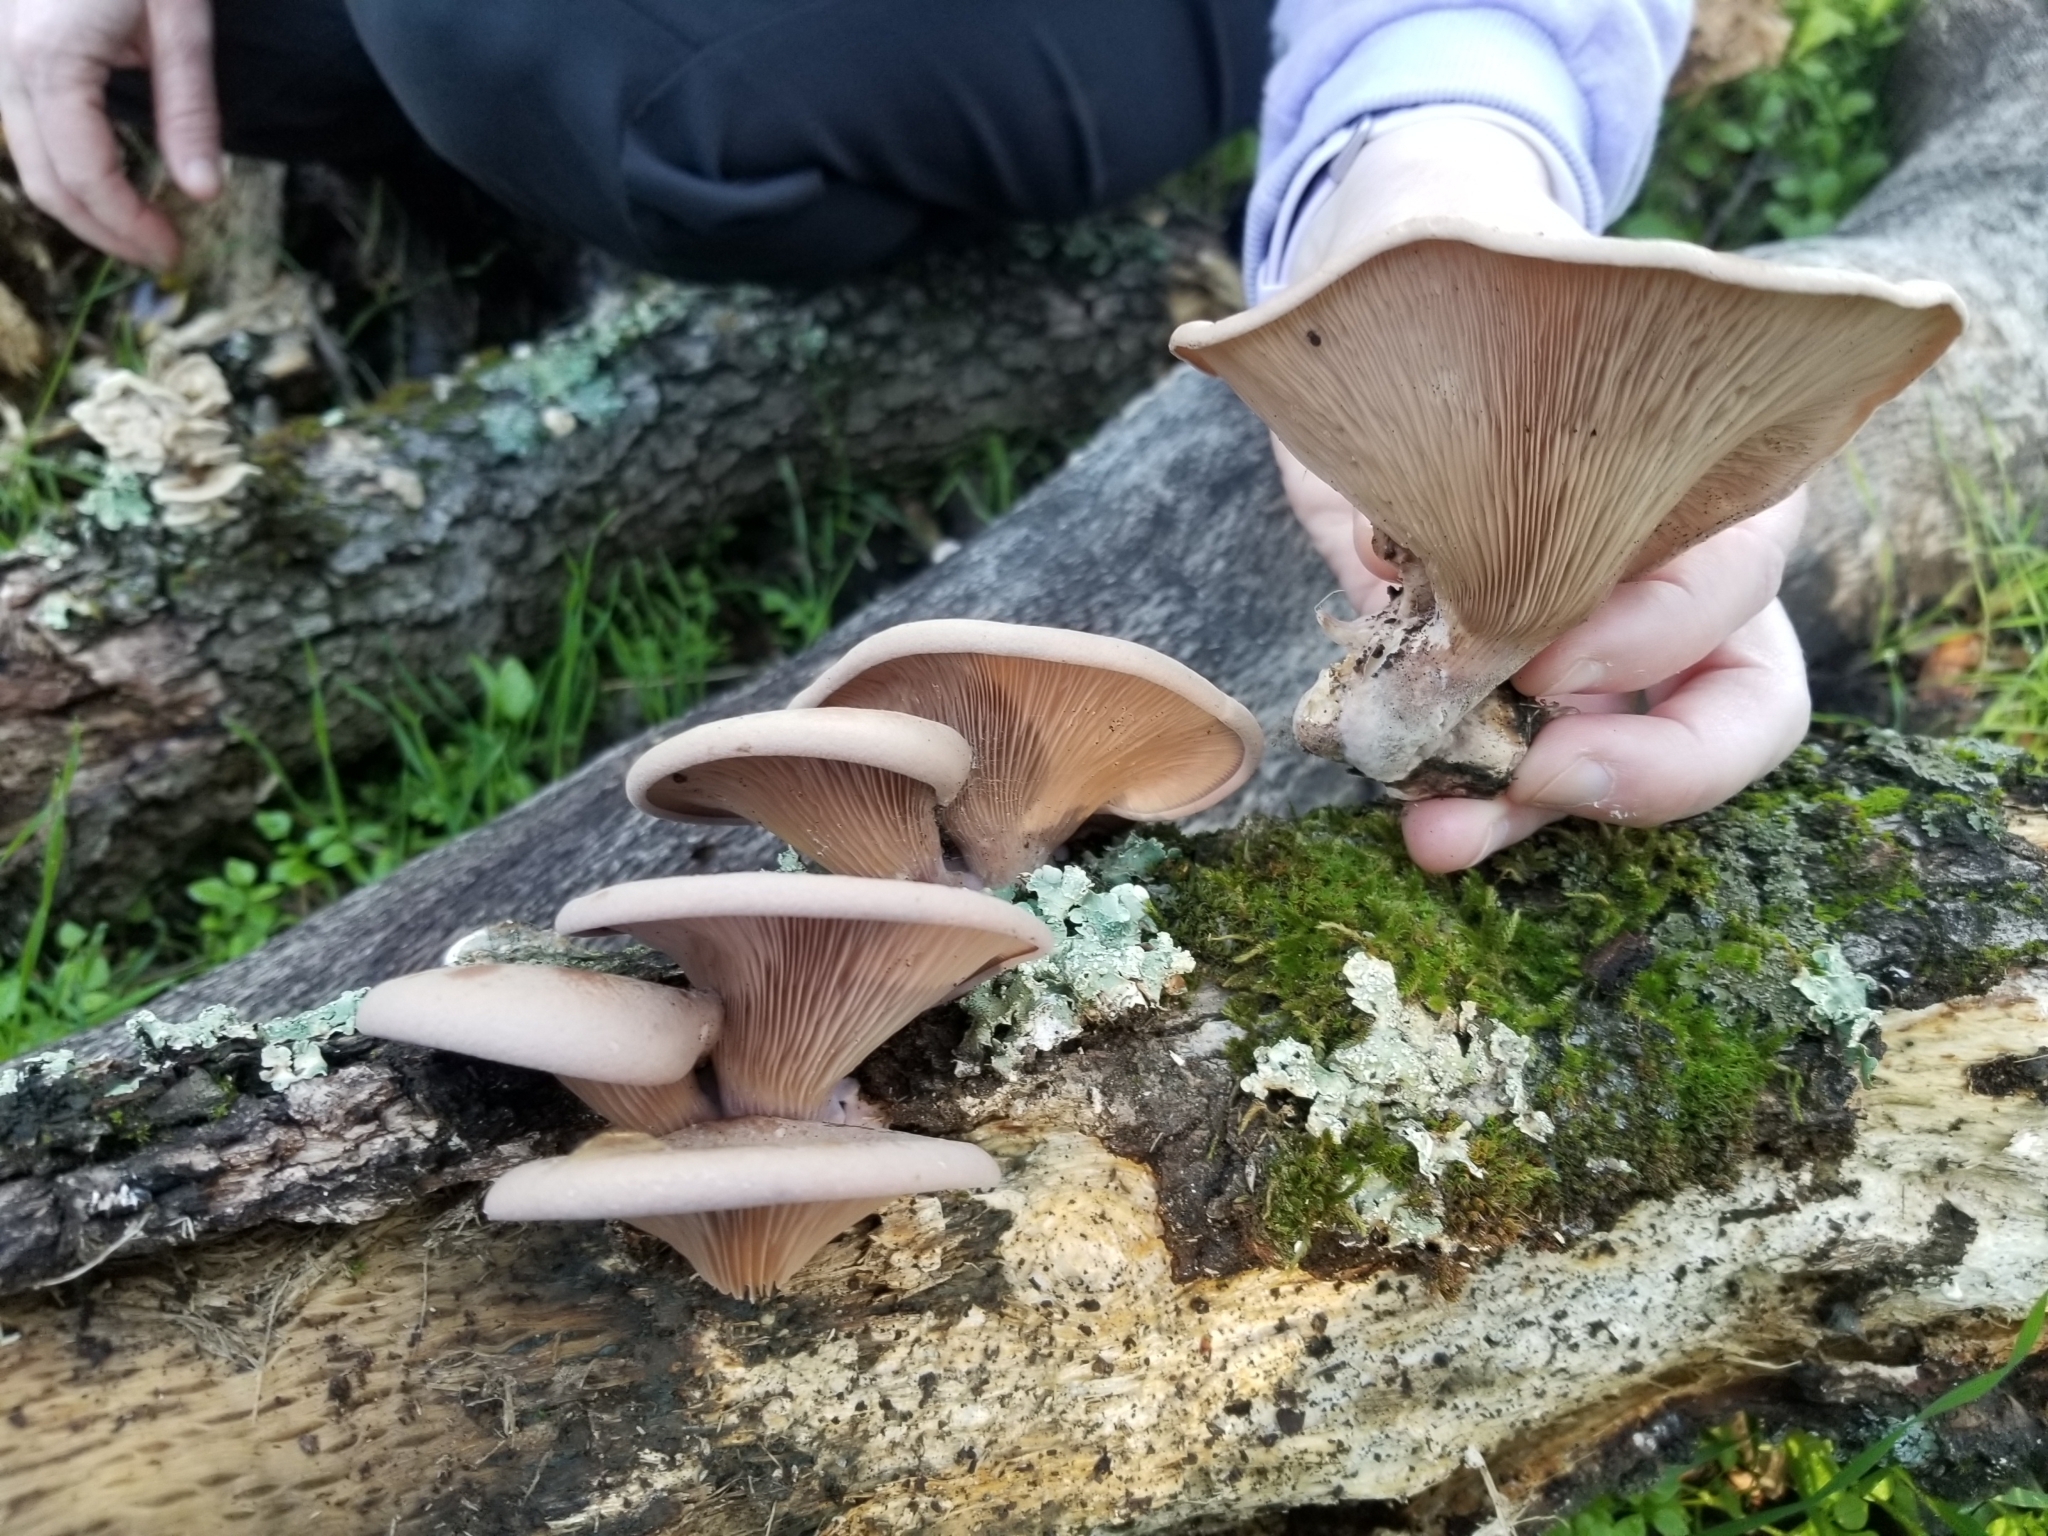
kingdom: Fungi
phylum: Basidiomycota
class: Agaricomycetes
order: Polyporales
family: Panaceae
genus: Panus
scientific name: Panus conchatus
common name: Lilac oysterling
